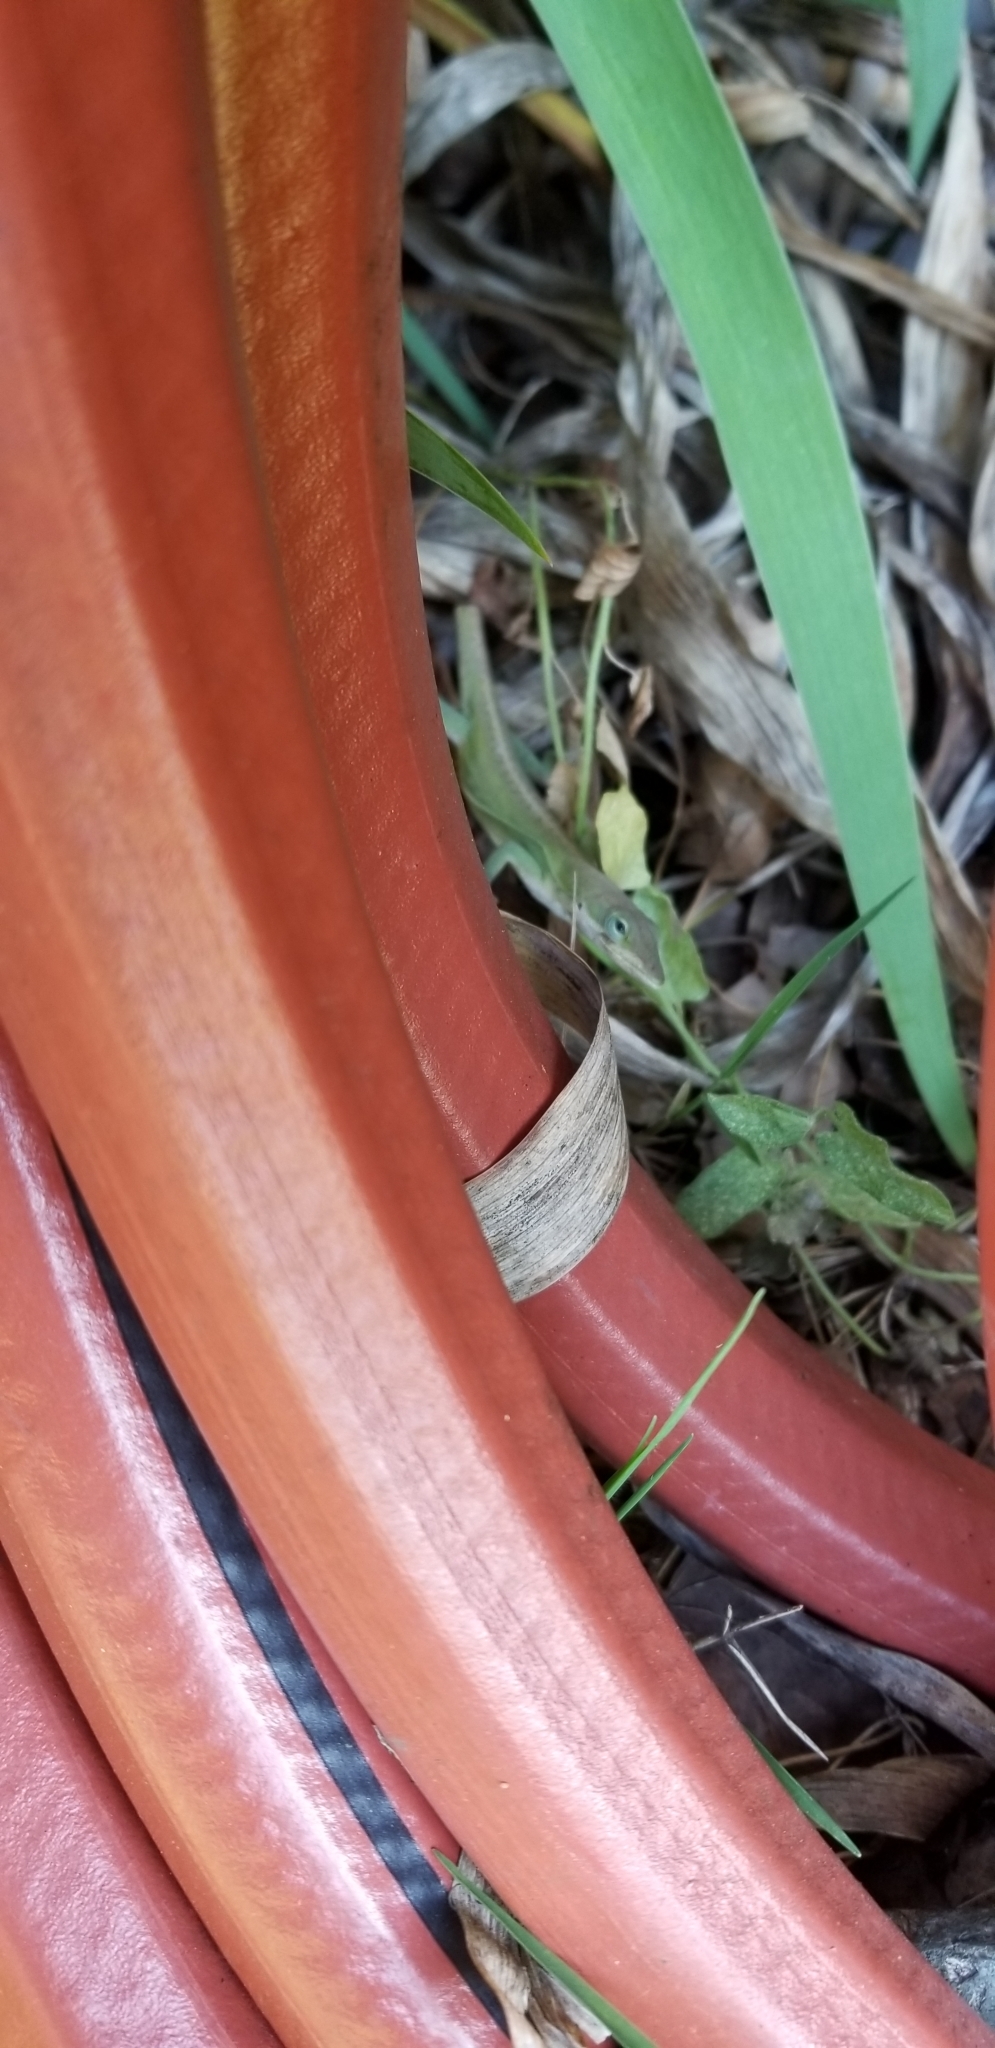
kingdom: Animalia
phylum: Chordata
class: Squamata
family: Dactyloidae
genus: Anolis
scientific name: Anolis carolinensis
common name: Green anole
